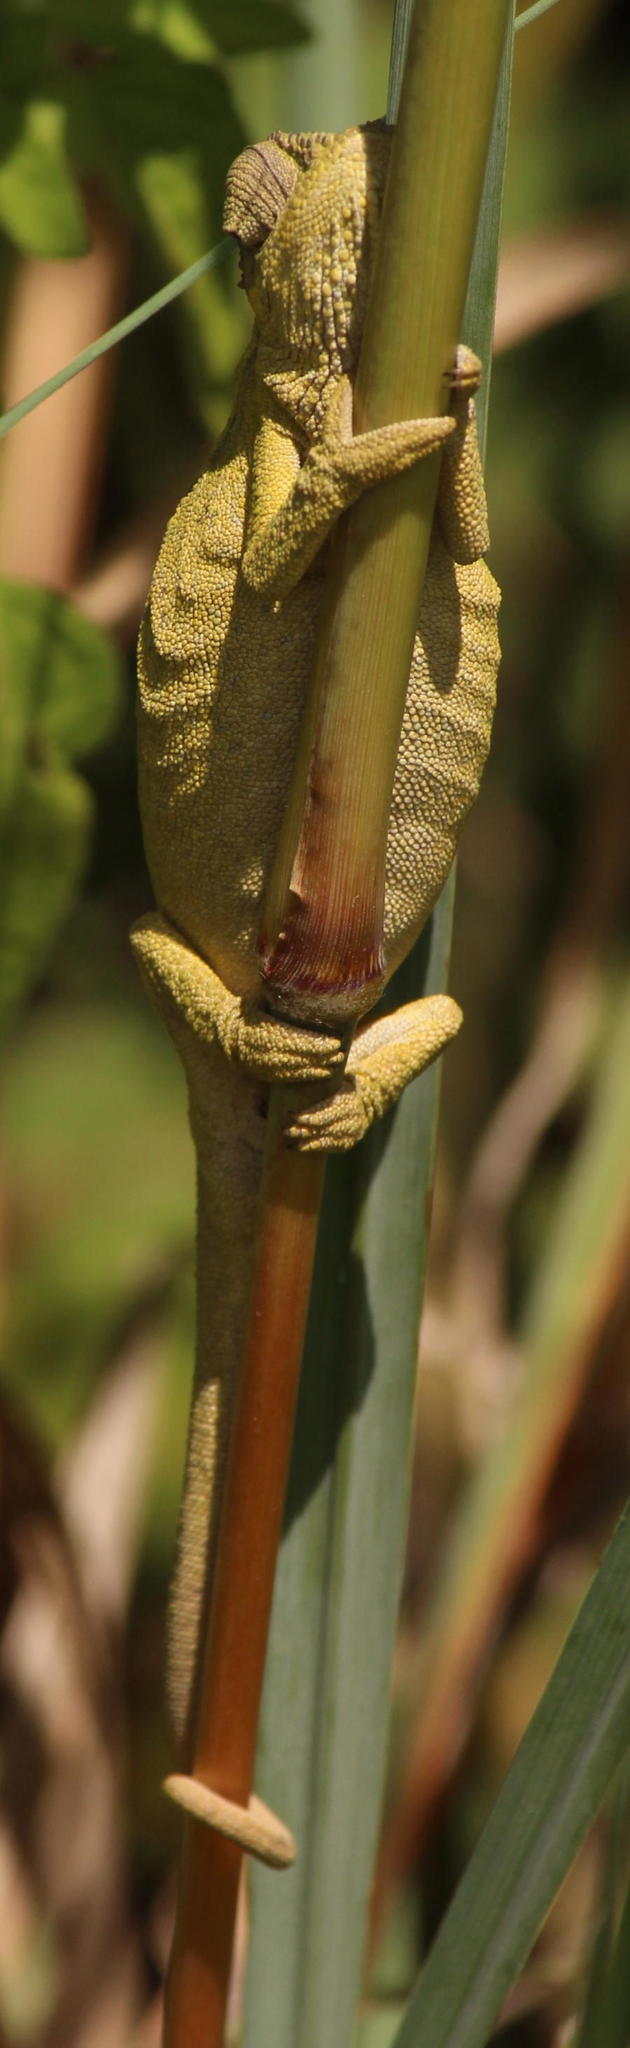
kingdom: Animalia
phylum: Chordata
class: Squamata
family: Chamaeleonidae
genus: Bradypodion
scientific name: Bradypodion melanocephalum
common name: Black-headed dwarf chameleon
